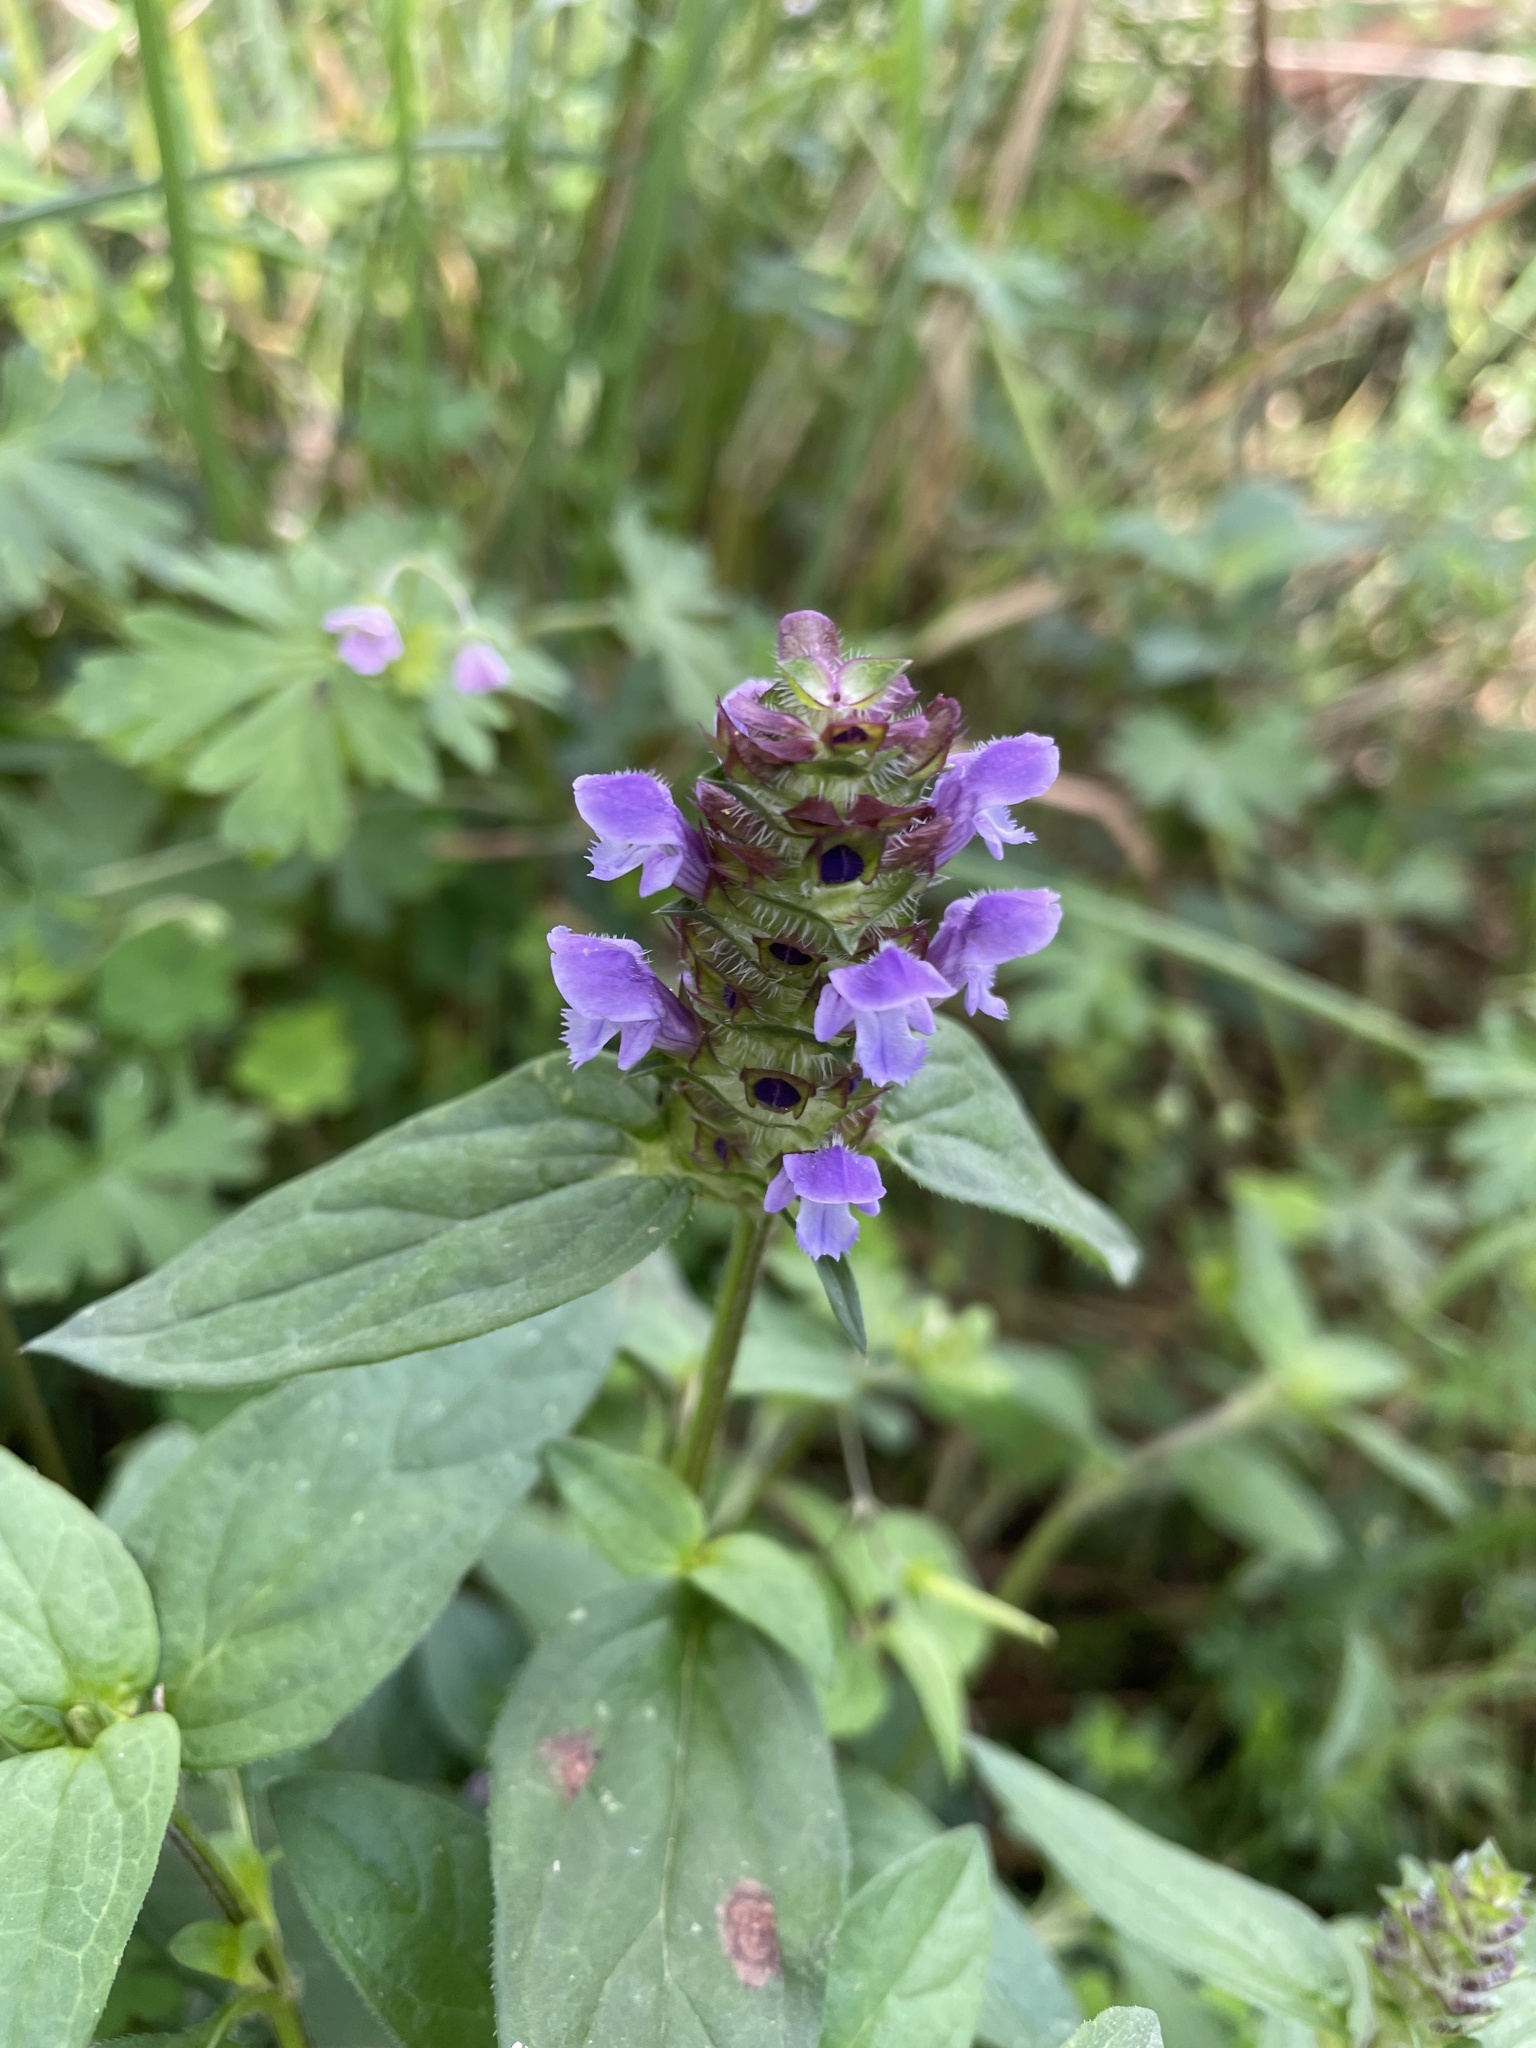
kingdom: Plantae
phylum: Tracheophyta
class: Magnoliopsida
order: Lamiales
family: Lamiaceae
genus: Prunella
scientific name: Prunella vulgaris
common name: Heal-all
